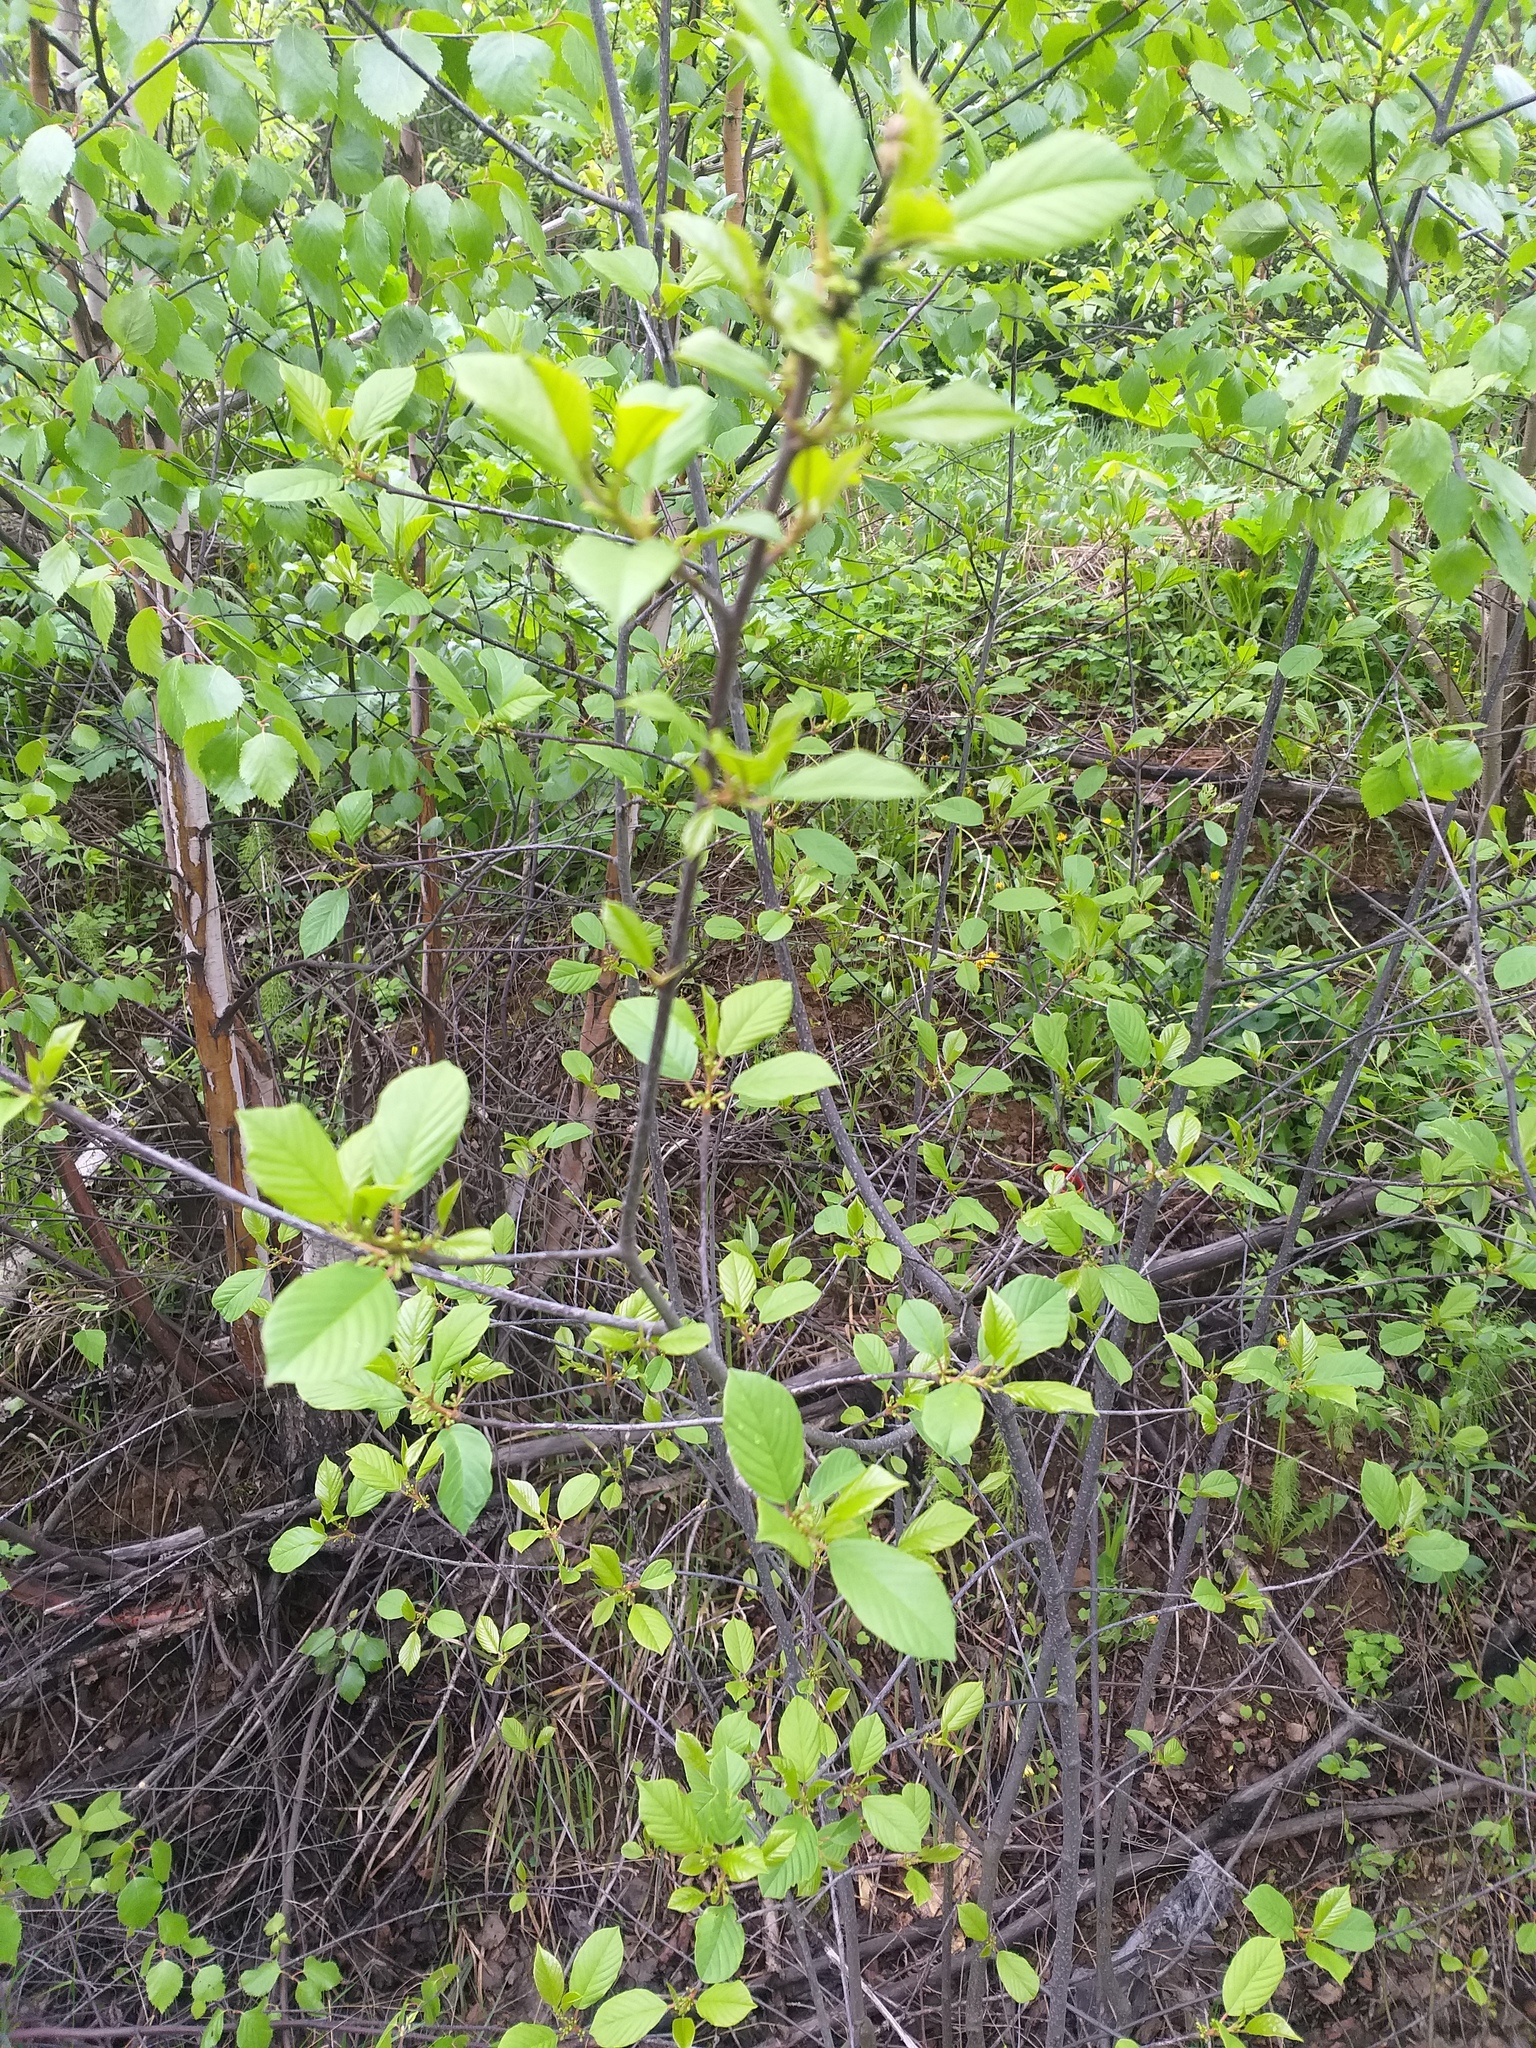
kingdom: Plantae
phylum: Tracheophyta
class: Magnoliopsida
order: Rosales
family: Rhamnaceae
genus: Frangula
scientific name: Frangula alnus
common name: Alder buckthorn
